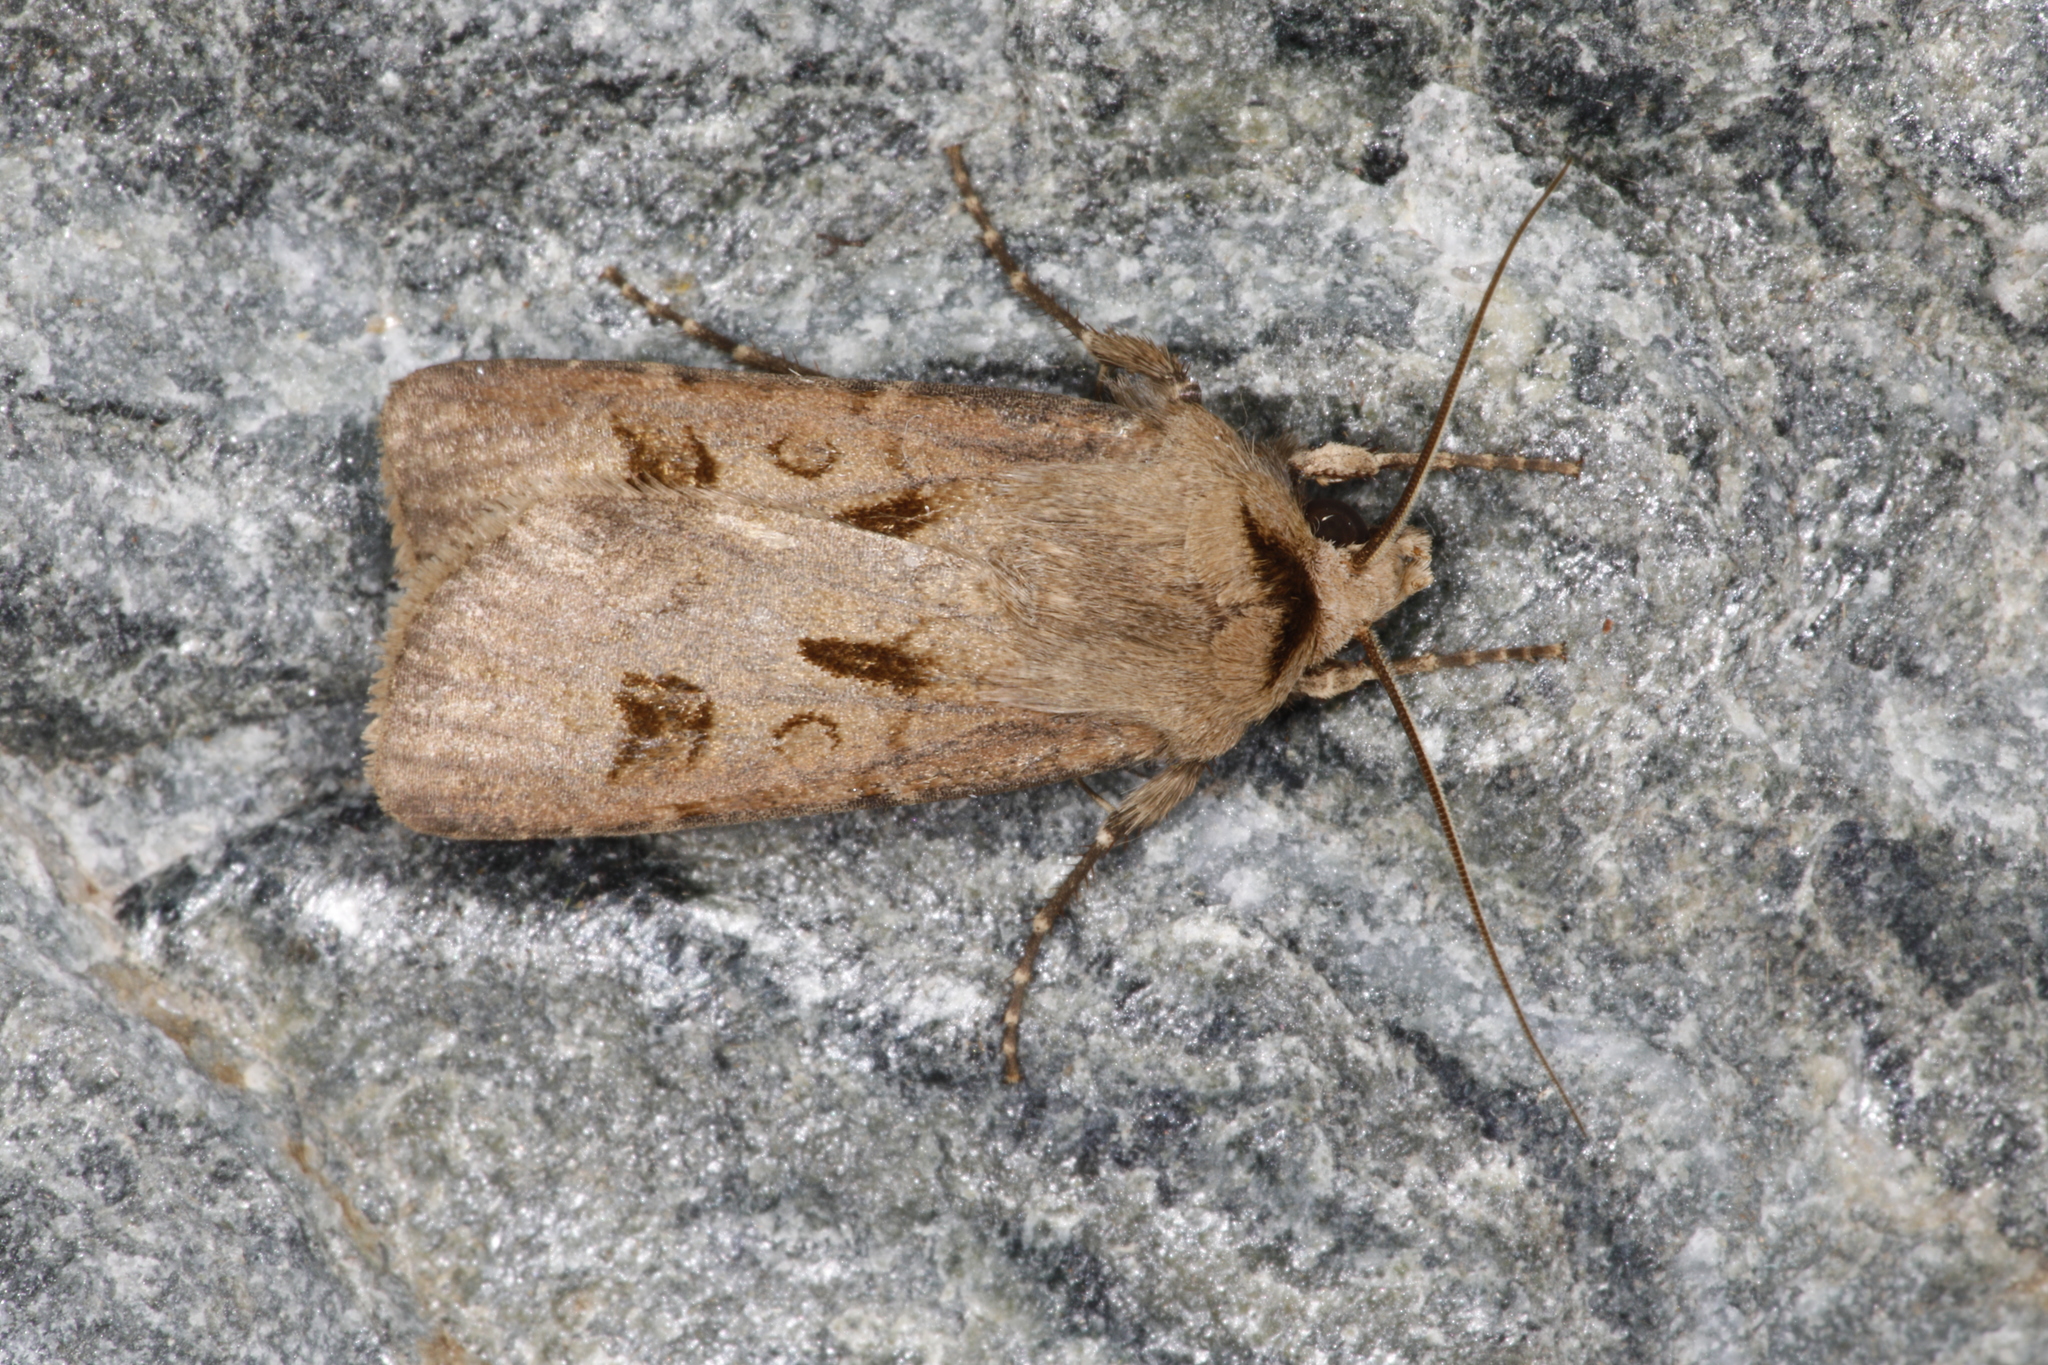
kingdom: Animalia
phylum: Arthropoda
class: Insecta
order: Lepidoptera
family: Noctuidae
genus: Agrotis
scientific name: Agrotis exclamationis
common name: Heart and dart
